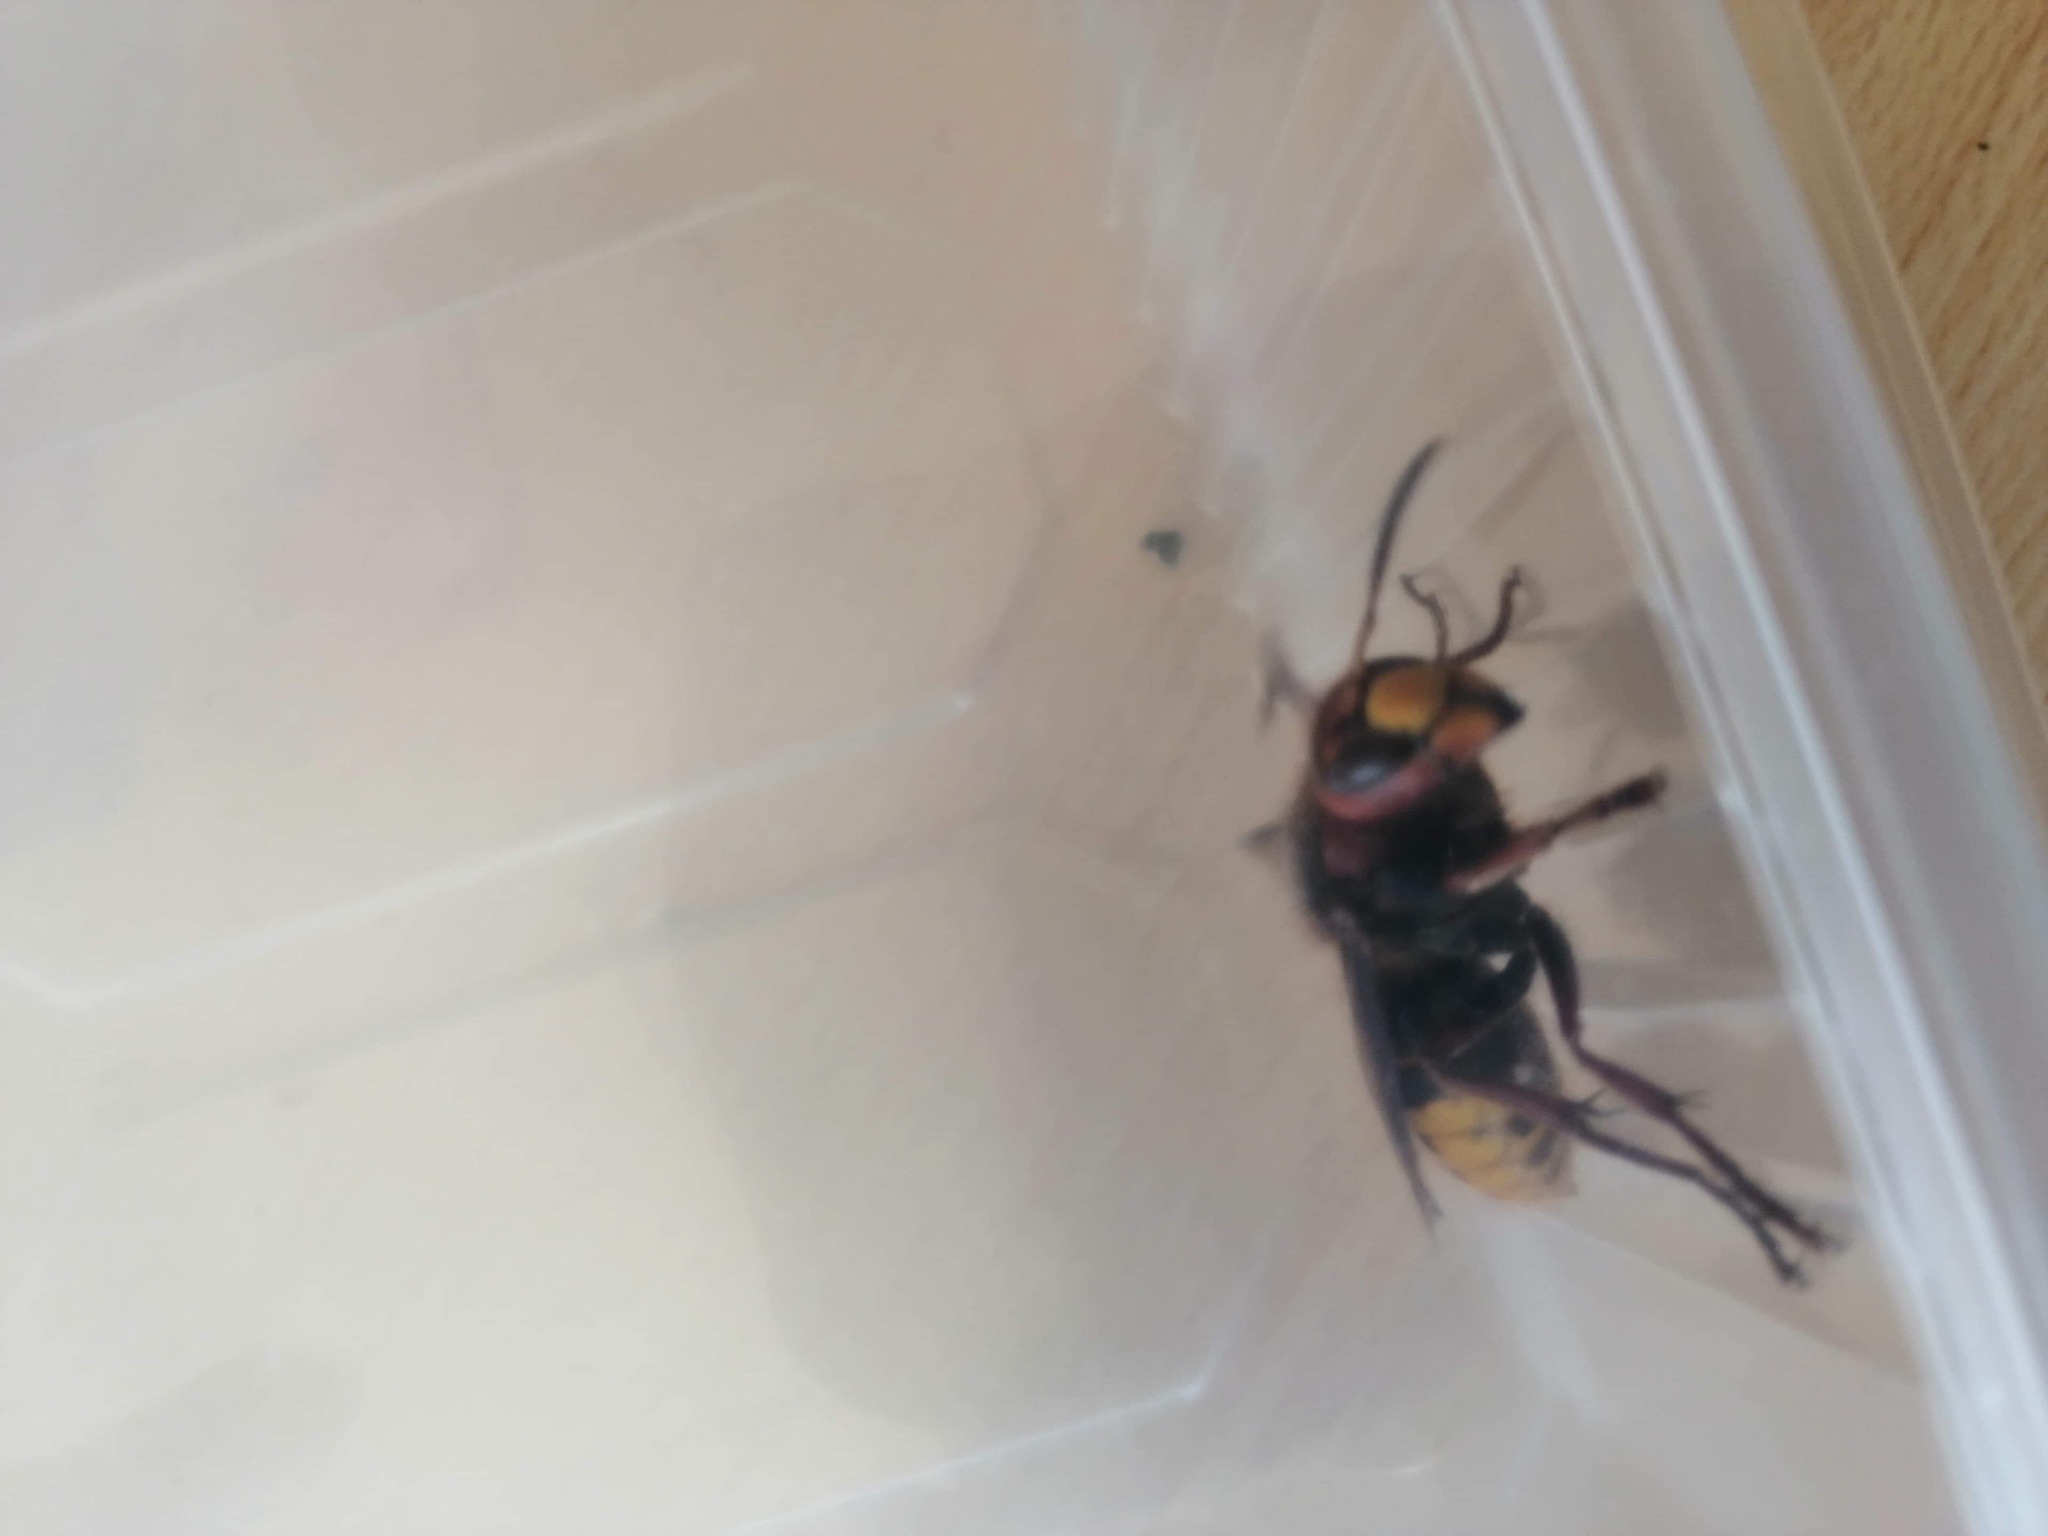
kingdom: Animalia
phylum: Arthropoda
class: Insecta
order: Hymenoptera
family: Vespidae
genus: Vespa
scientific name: Vespa crabro
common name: Hornet
